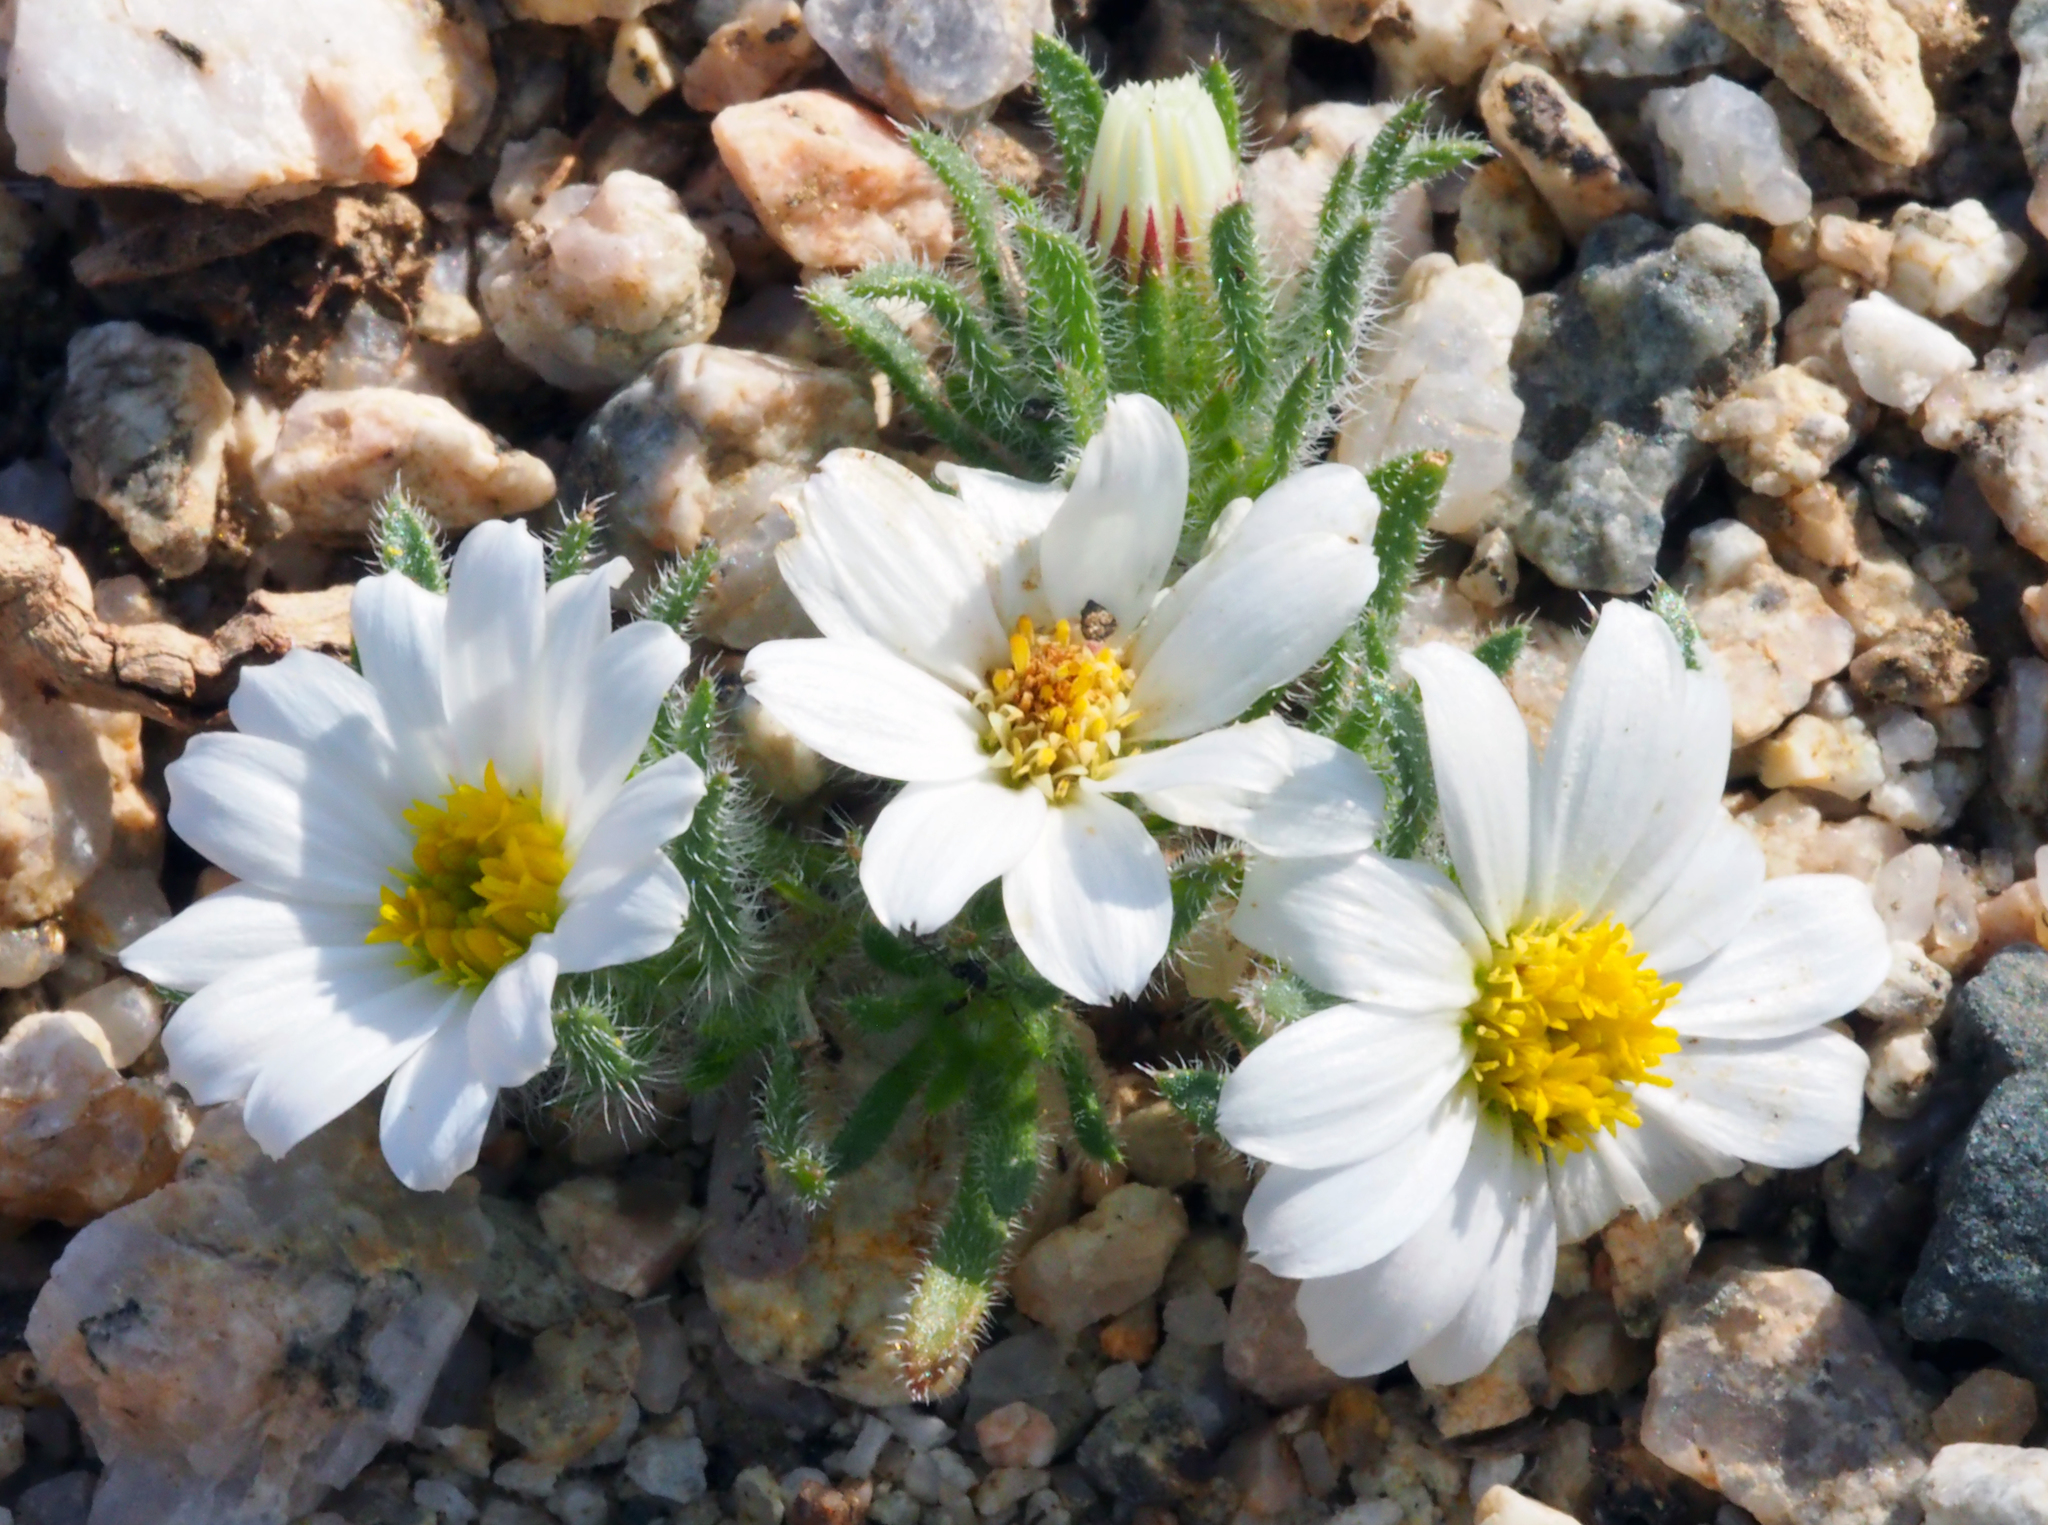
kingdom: Plantae
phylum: Tracheophyta
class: Magnoliopsida
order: Asterales
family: Asteraceae
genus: Monoptilon
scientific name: Monoptilon bellioides
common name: Bristly desertstar
